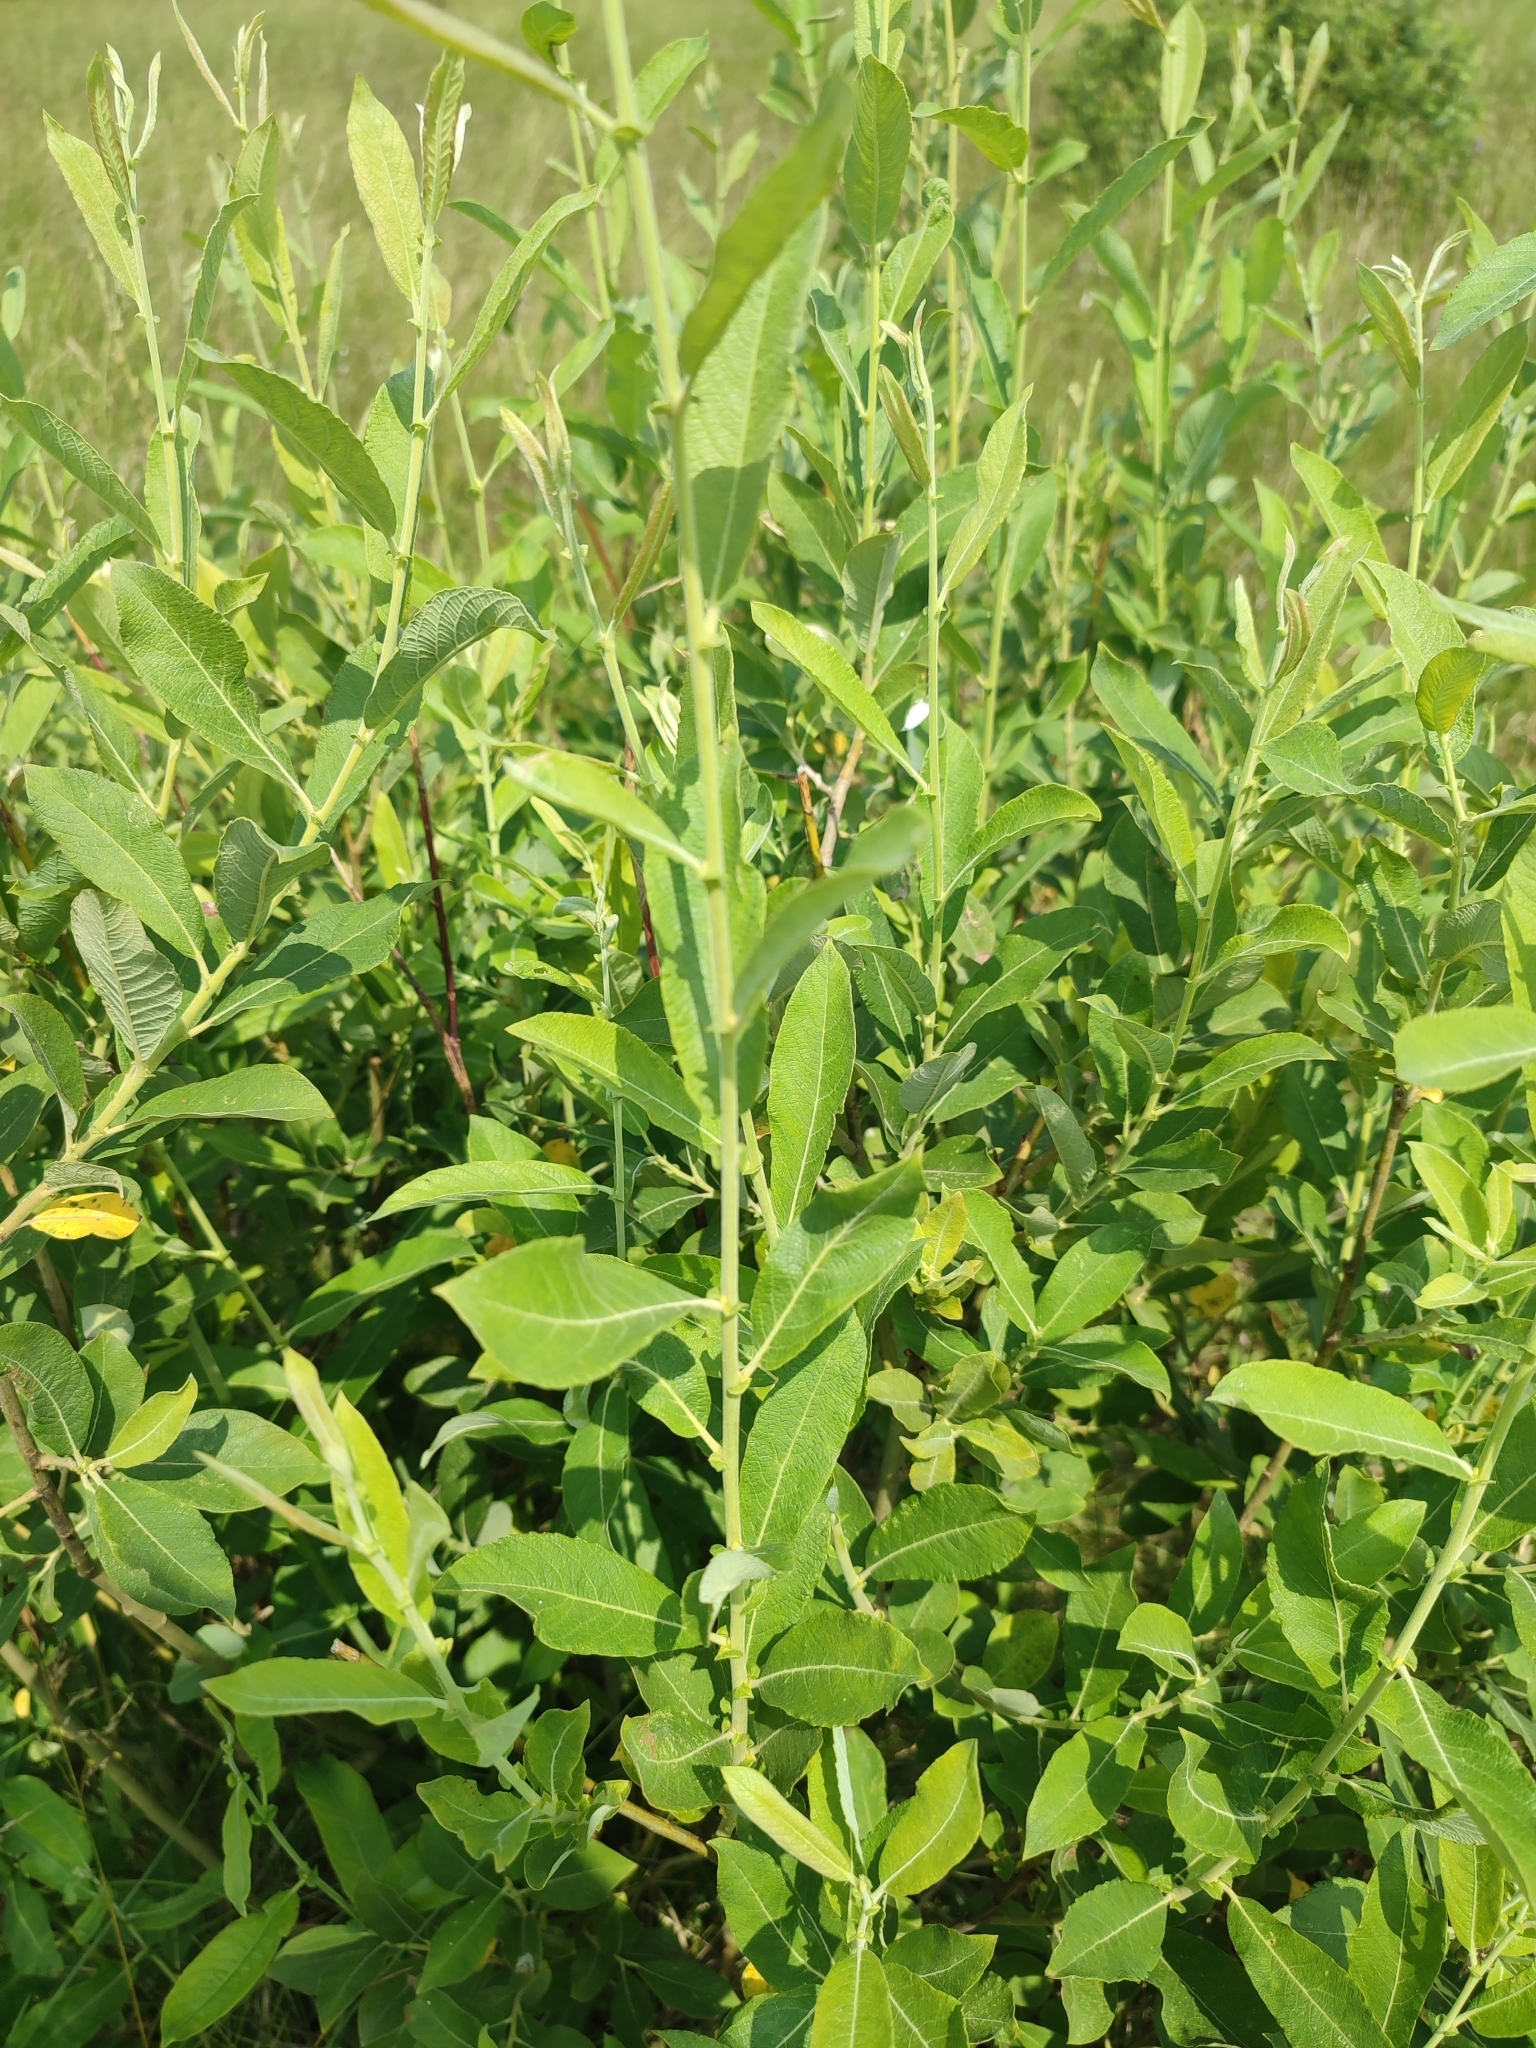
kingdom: Plantae
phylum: Tracheophyta
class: Magnoliopsida
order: Malpighiales
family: Salicaceae
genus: Salix
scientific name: Salix cinerea
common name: Common sallow
